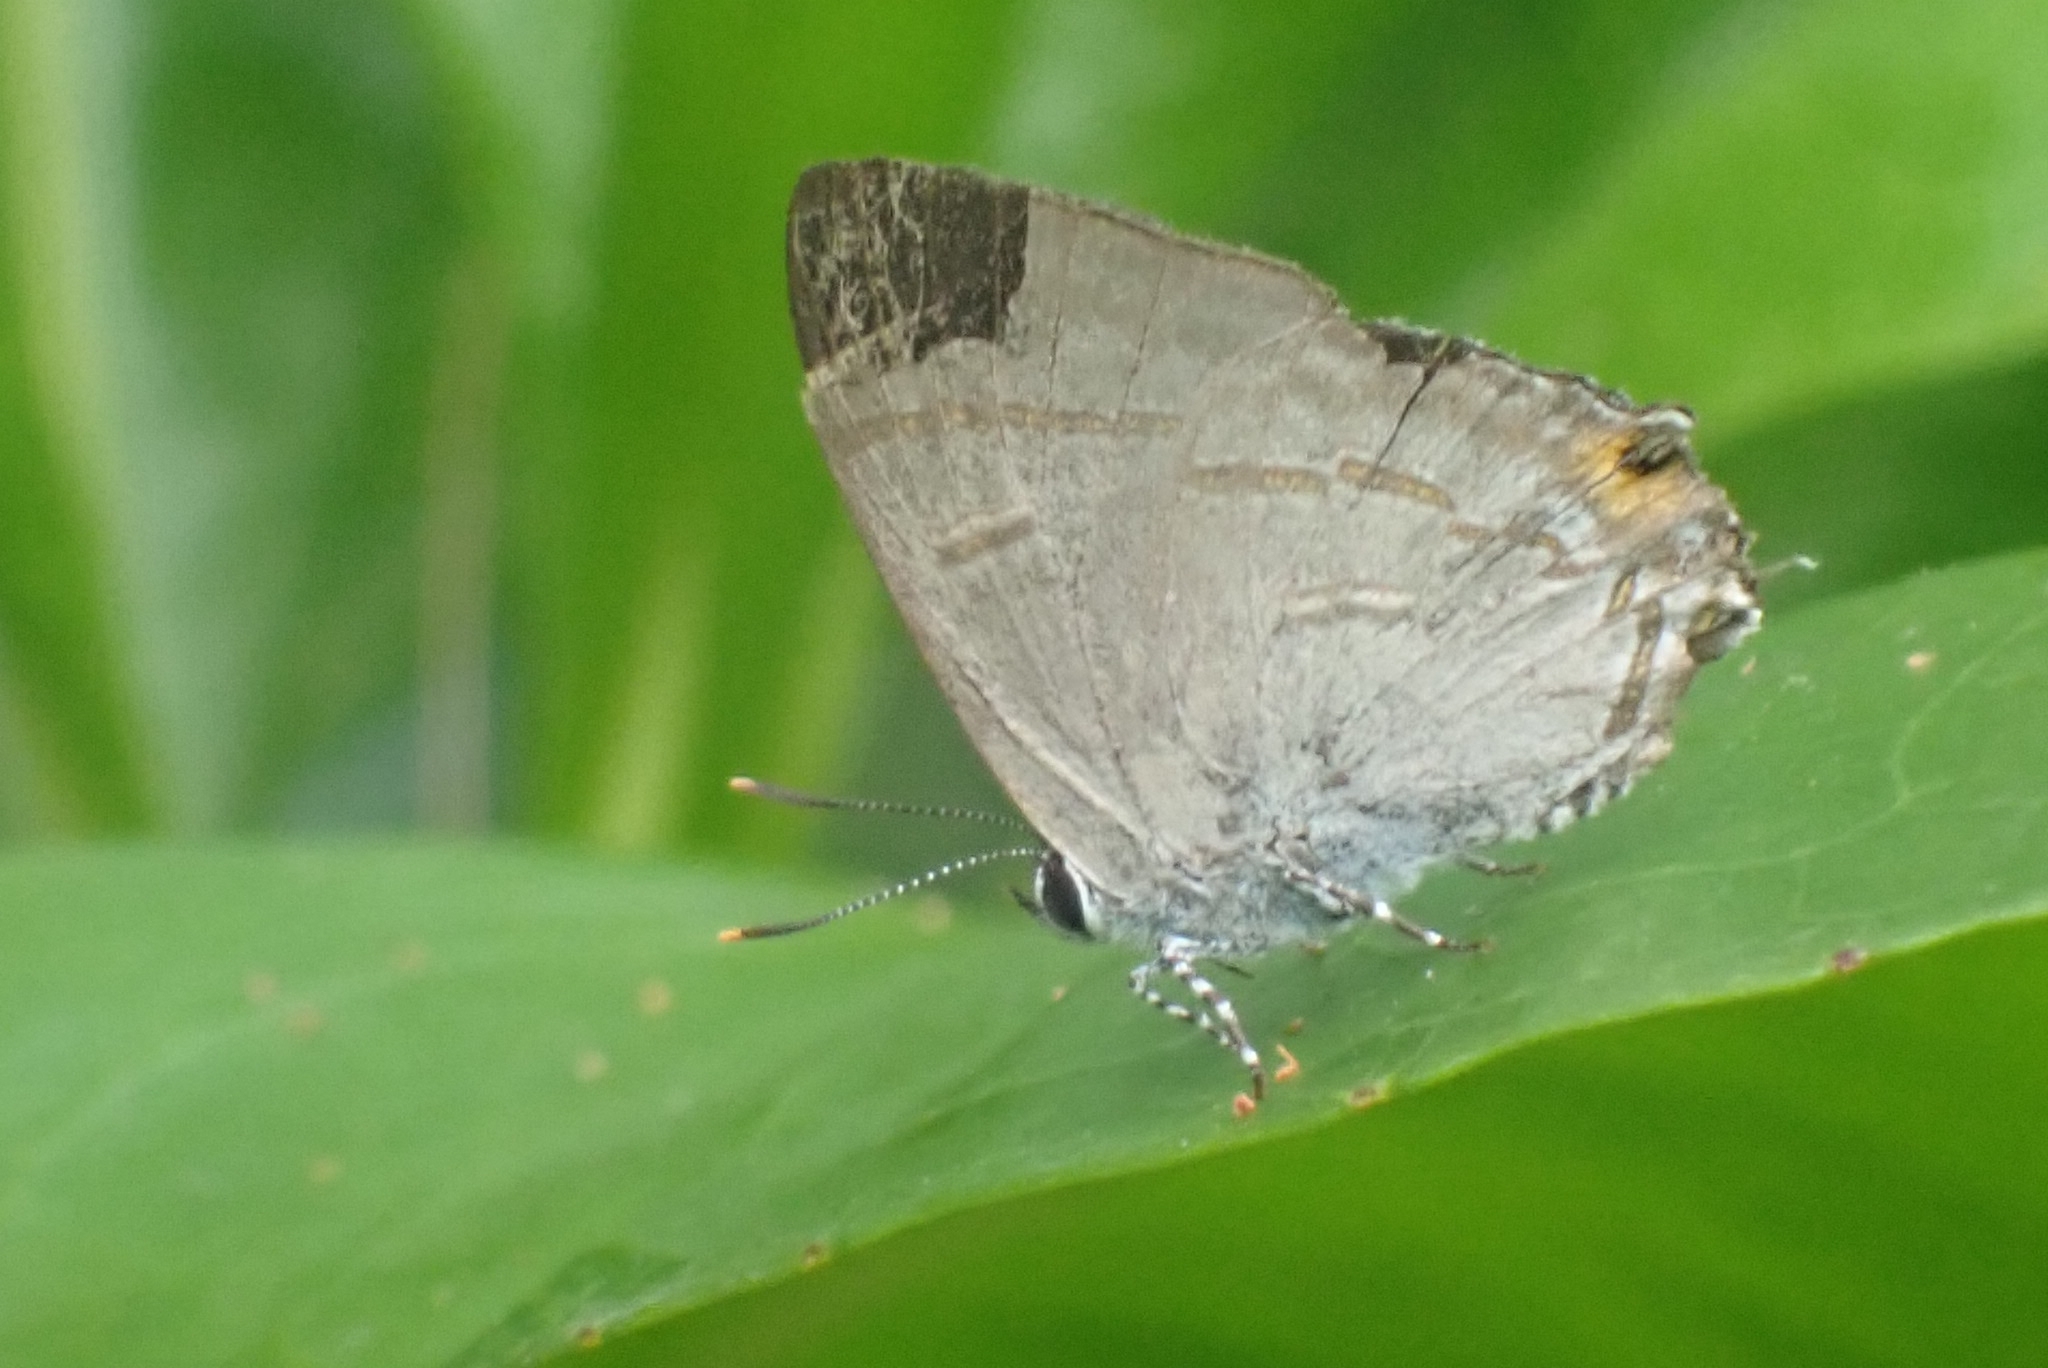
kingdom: Animalia
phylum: Arthropoda
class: Insecta
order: Lepidoptera
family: Lycaenidae
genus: Hypolycaena
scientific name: Hypolycaena erylus
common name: Common tit
